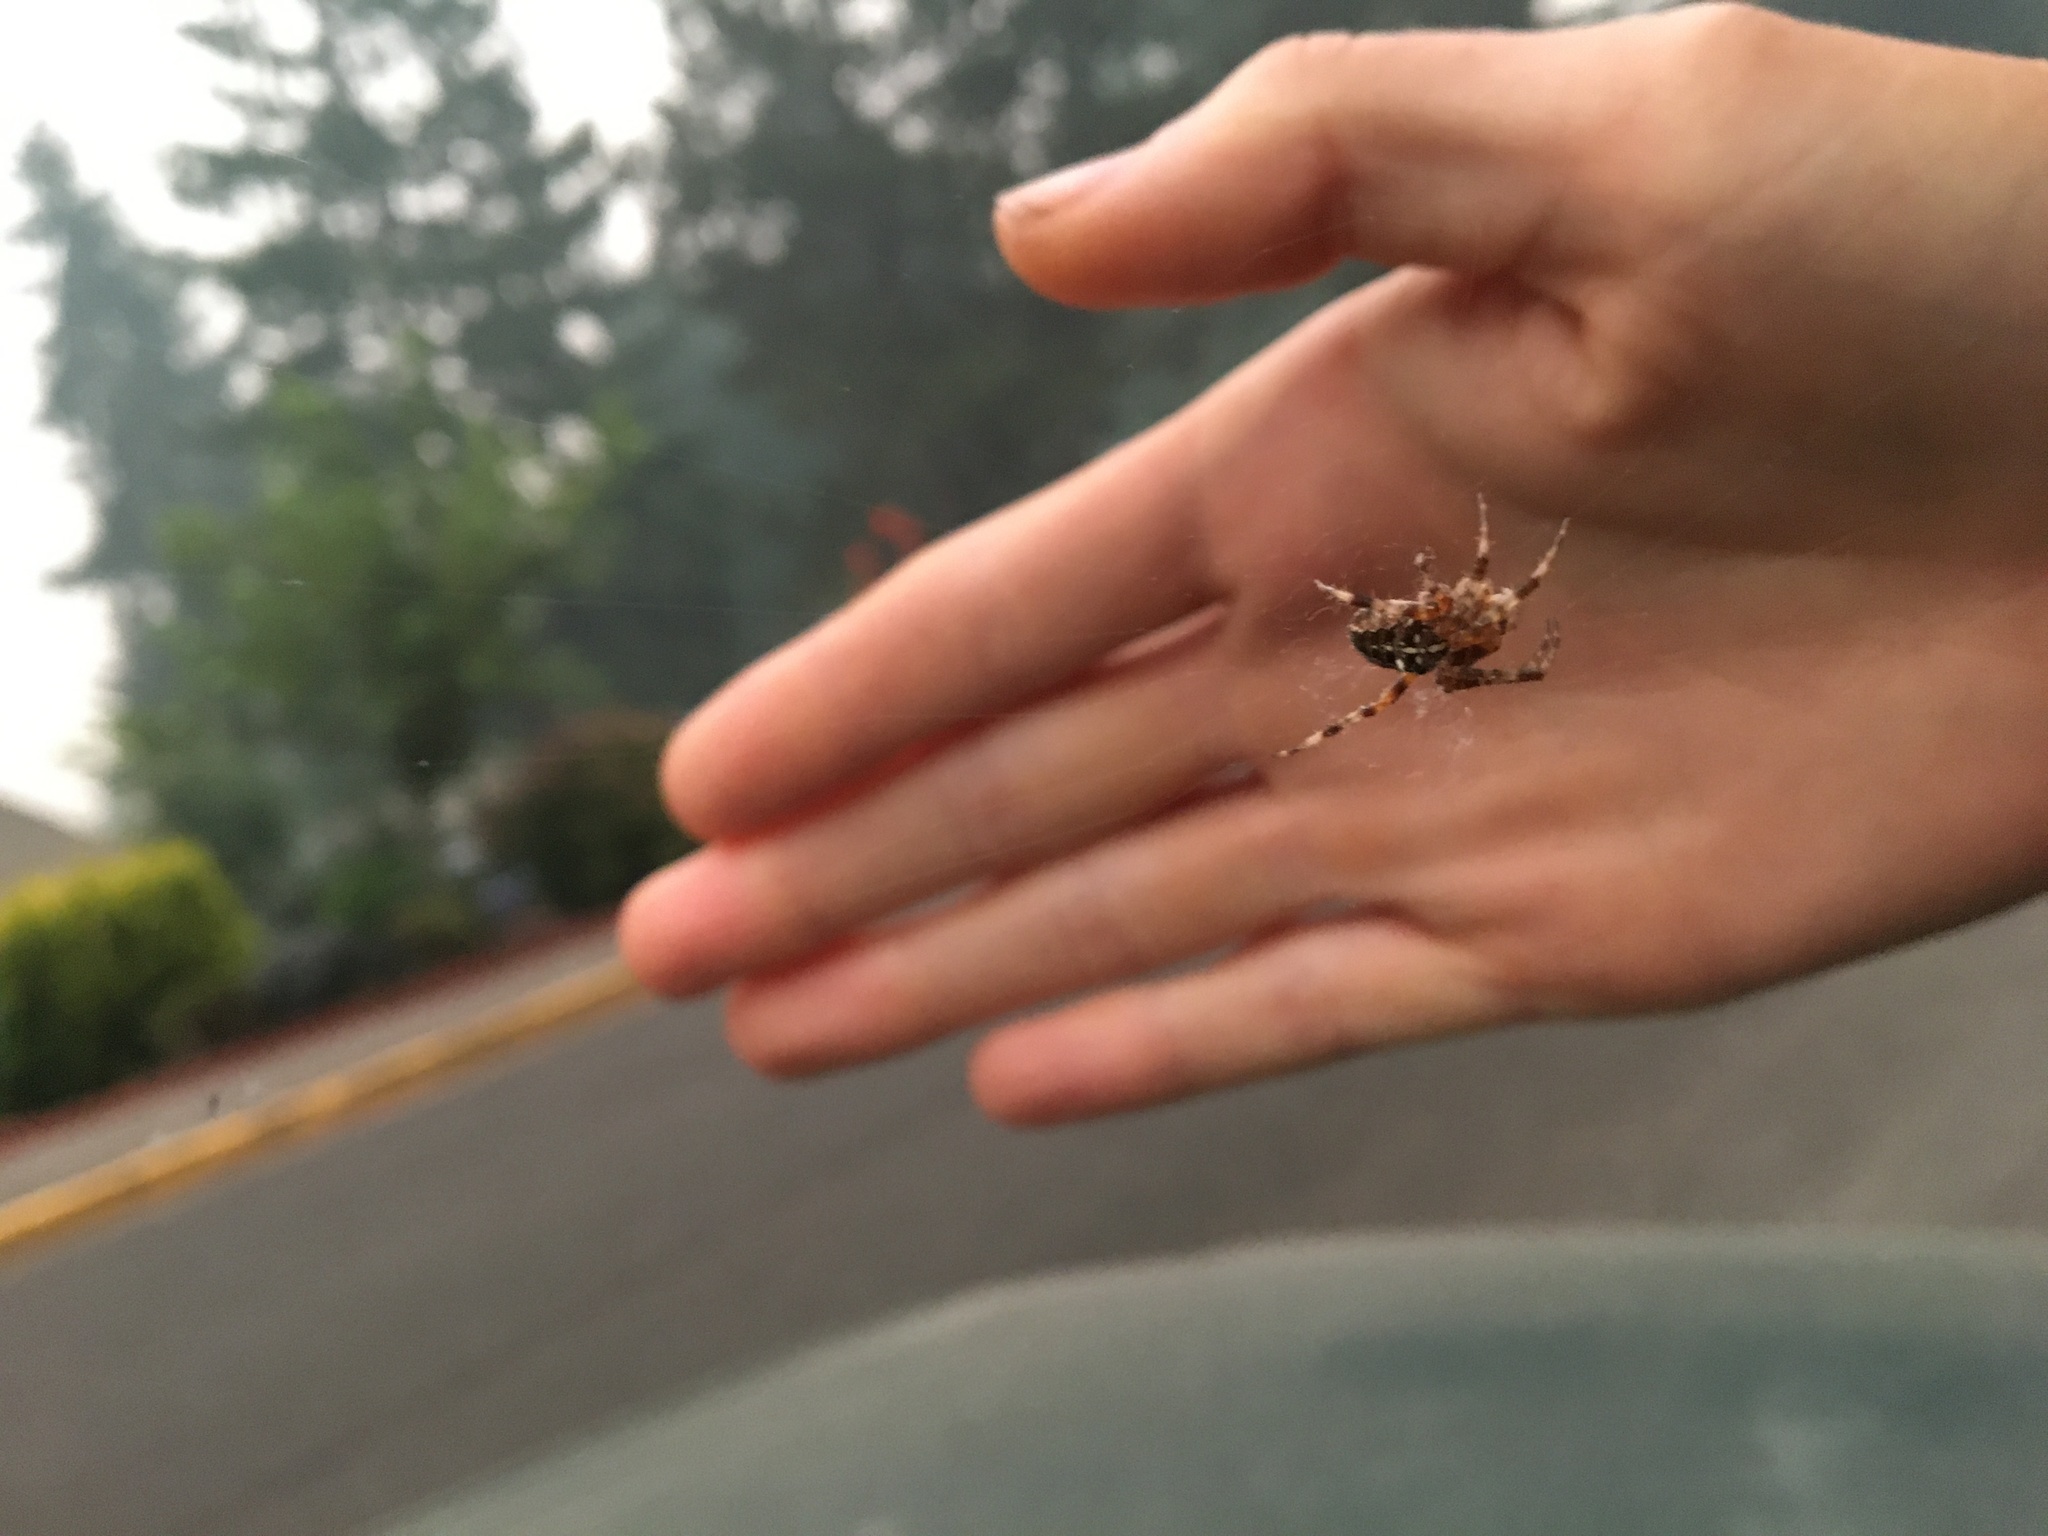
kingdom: Animalia
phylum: Arthropoda
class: Arachnida
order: Araneae
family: Araneidae
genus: Araneus
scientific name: Araneus diadematus
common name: Cross orbweaver
